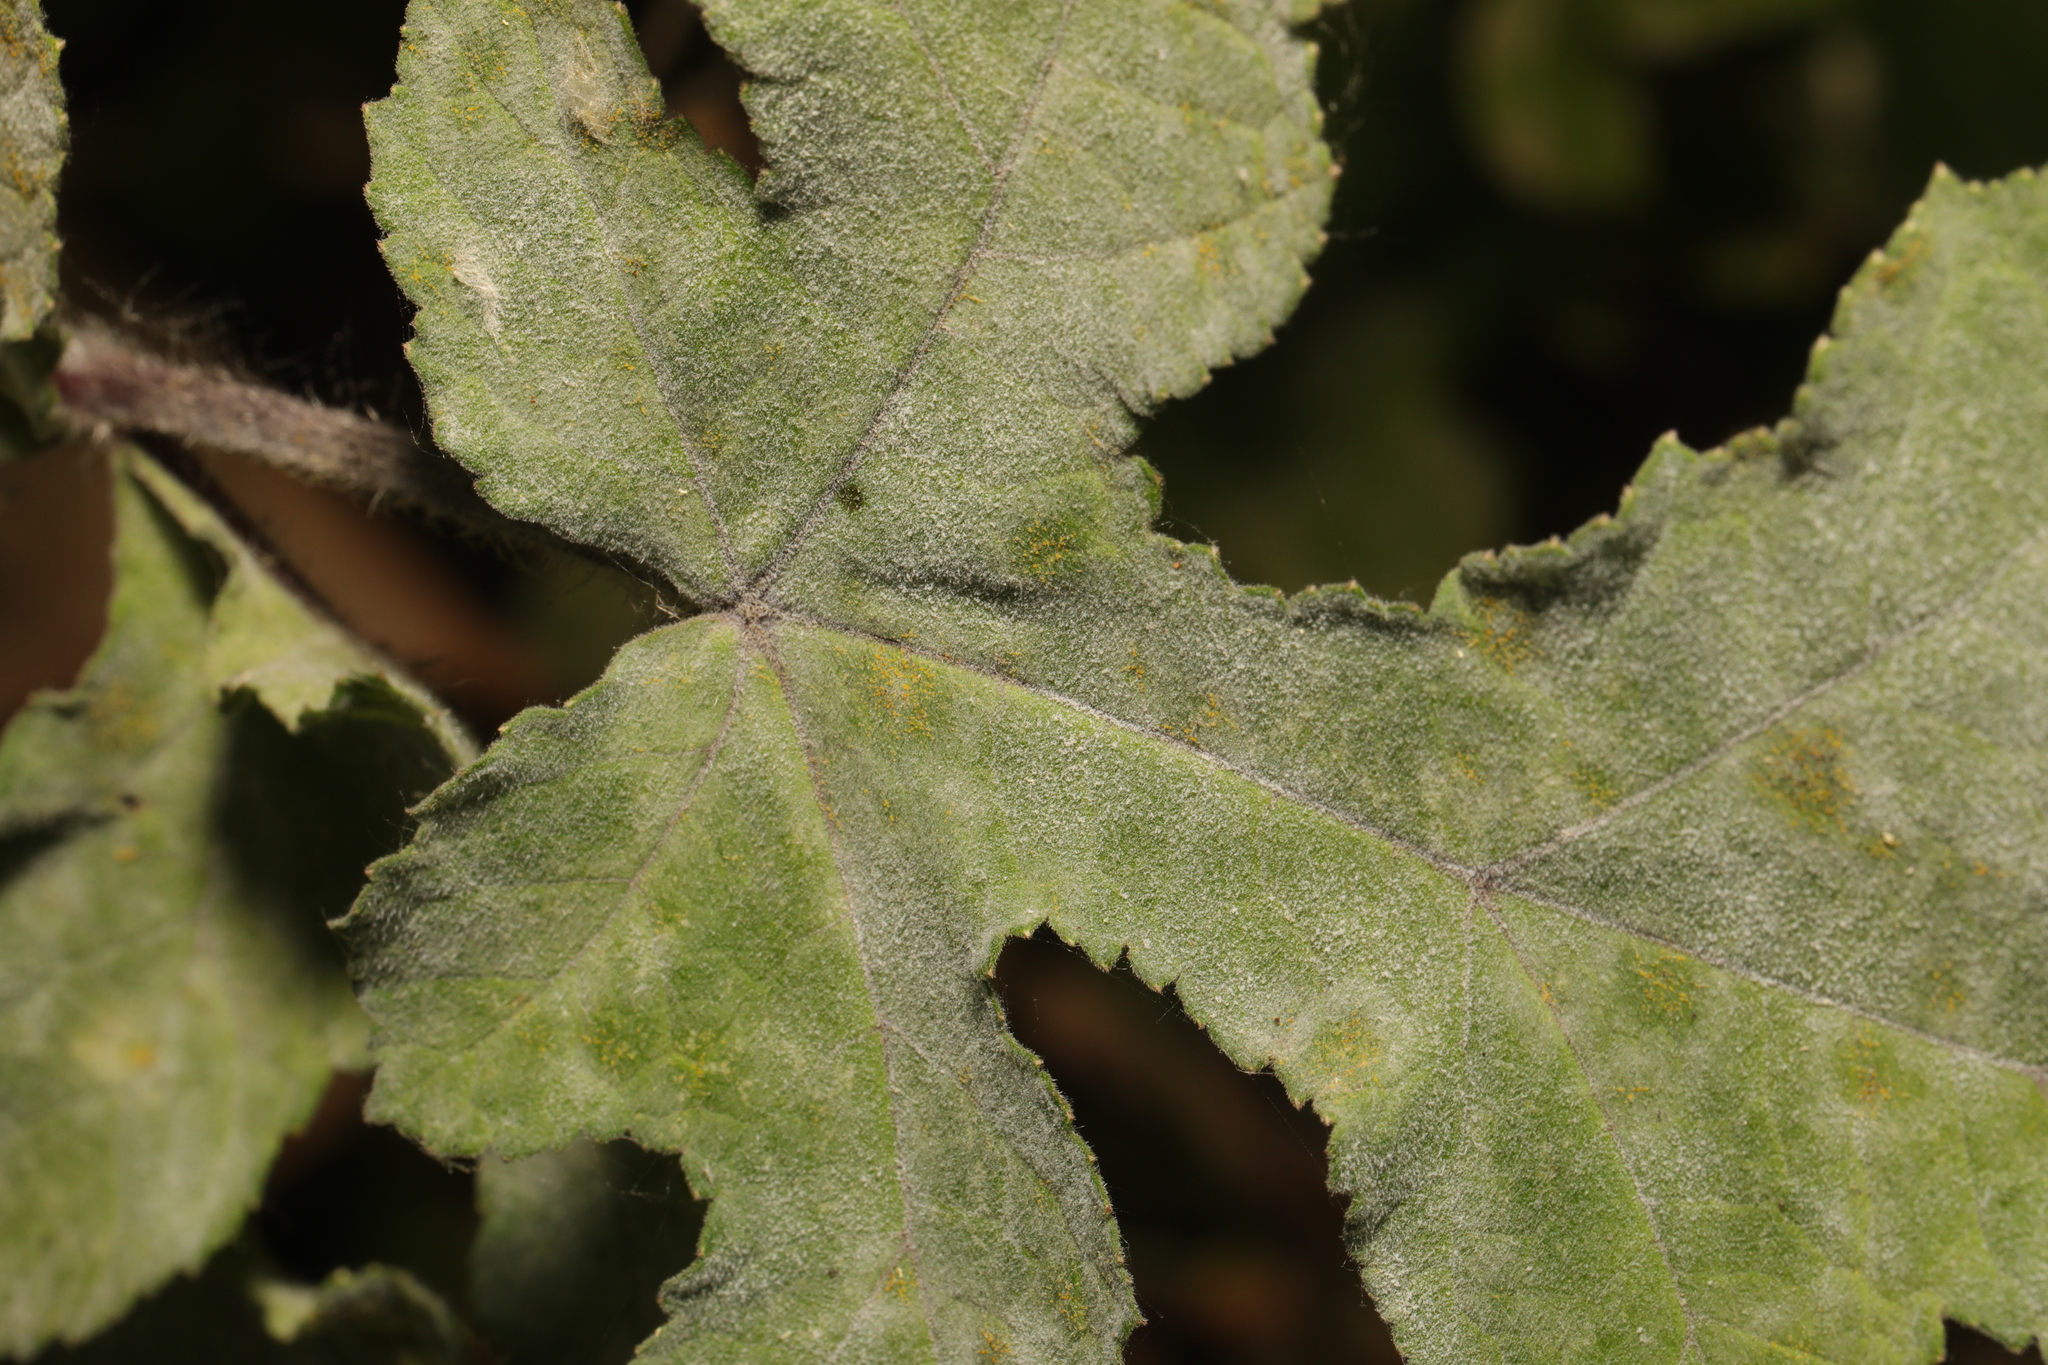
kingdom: Fungi
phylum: Ascomycota
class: Leotiomycetes
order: Helotiales
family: Erysiphaceae
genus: Erysiphe
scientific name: Erysiphe heraclei
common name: Umbellifer mildew
